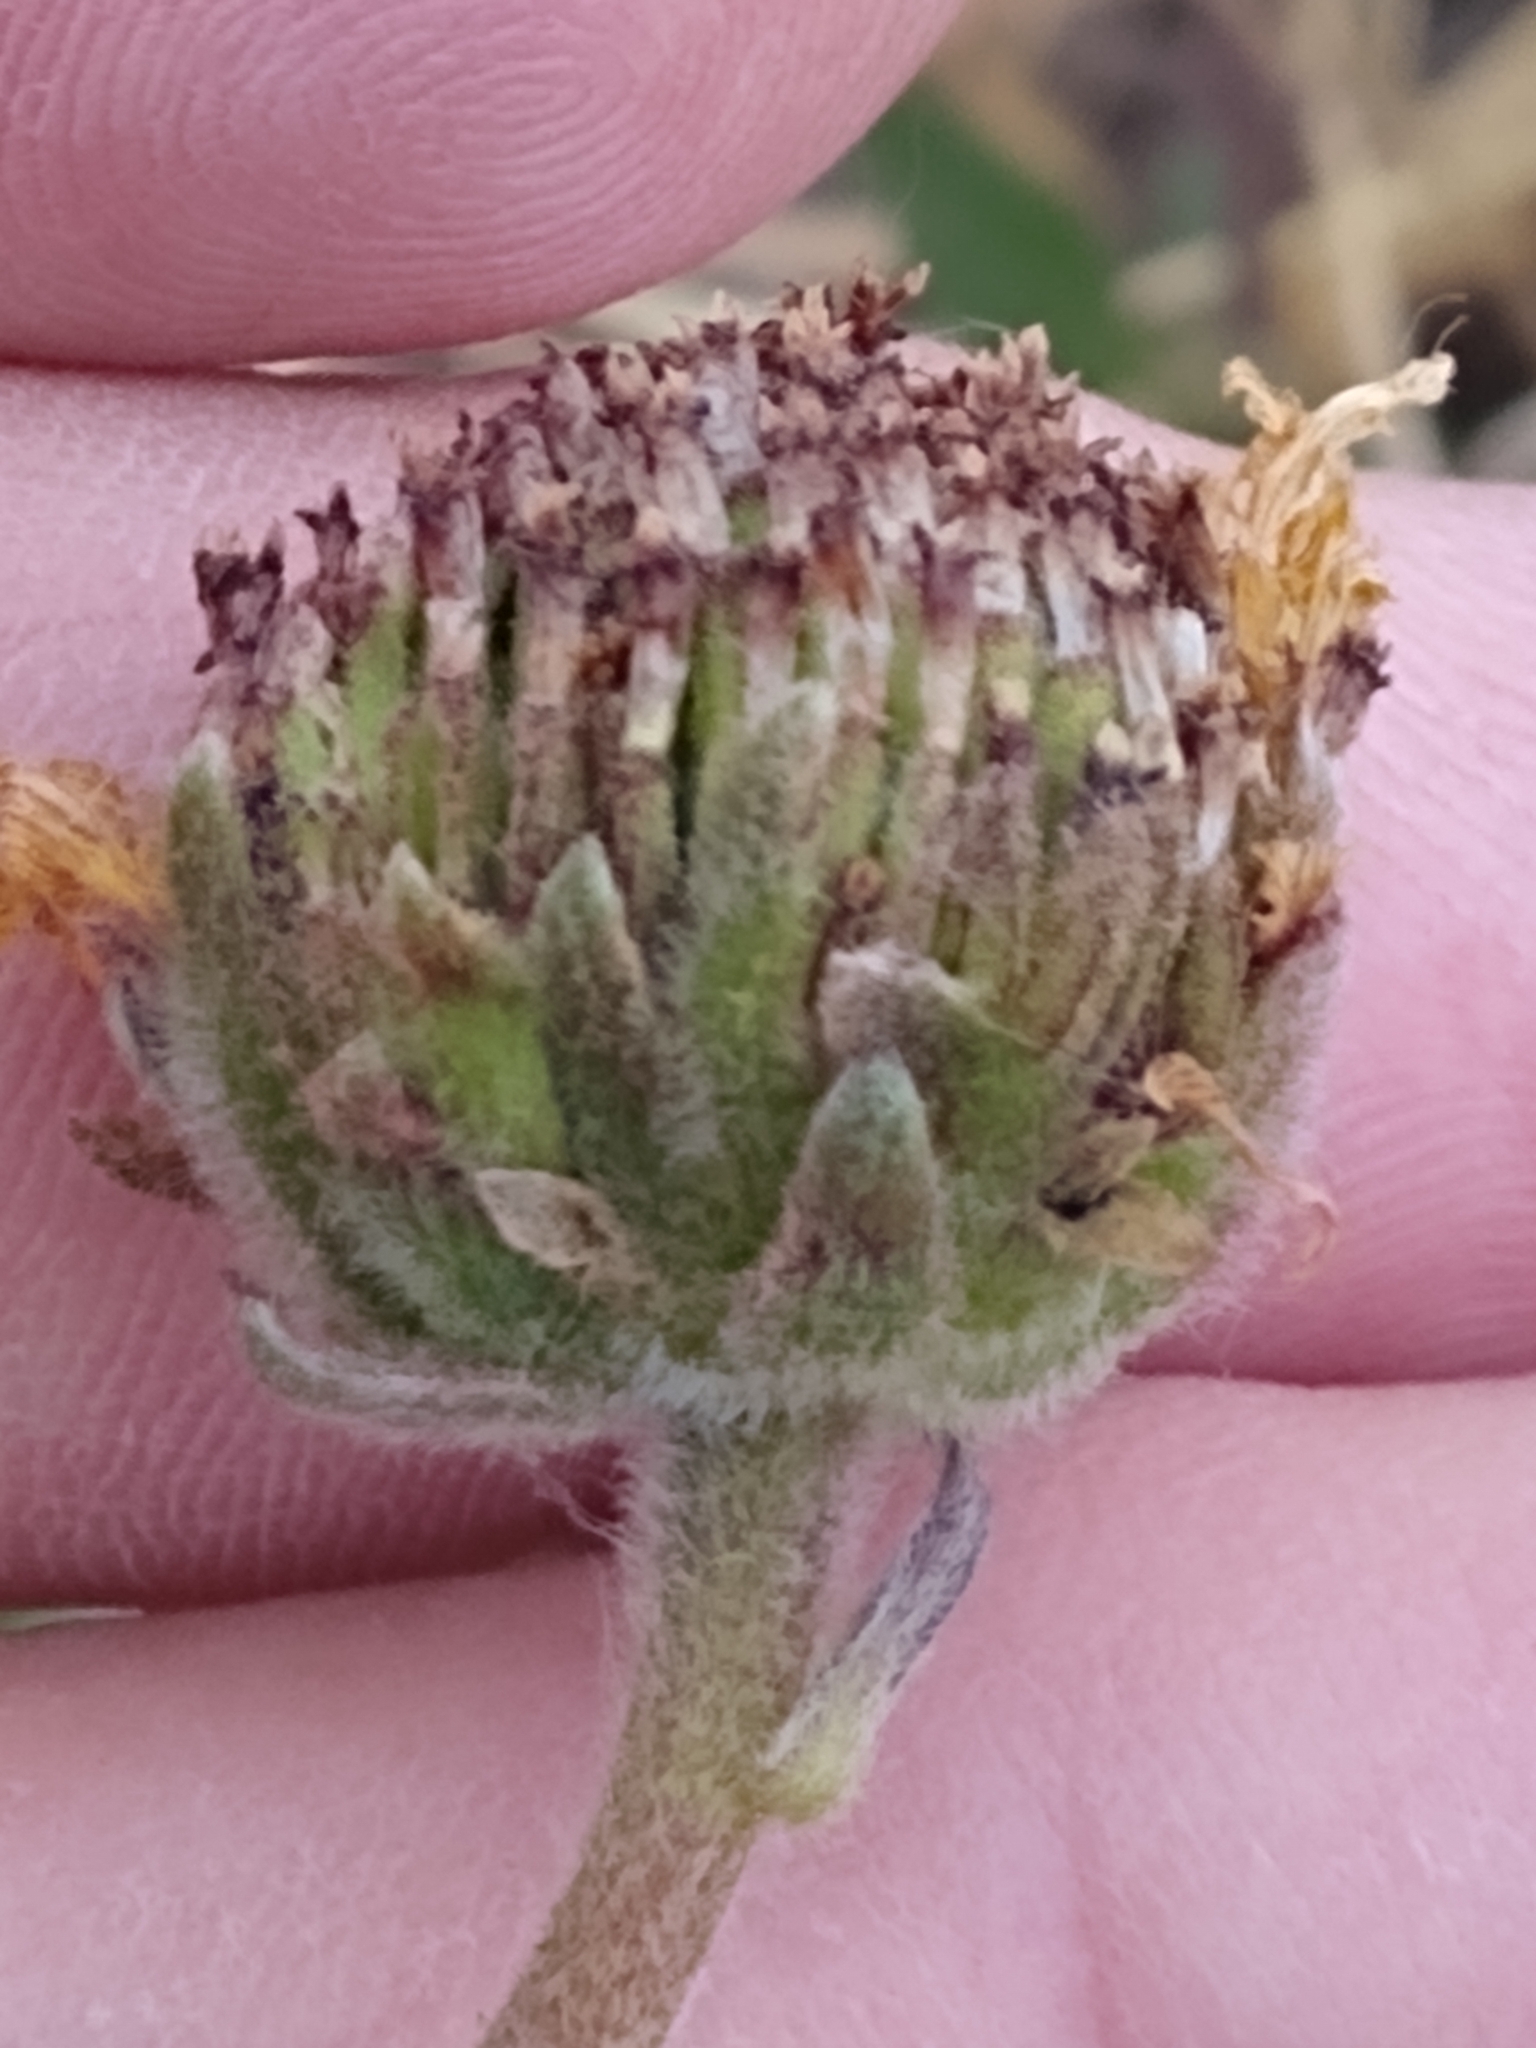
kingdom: Plantae
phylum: Tracheophyta
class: Magnoliopsida
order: Asterales
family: Asteraceae
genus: Encelia
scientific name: Encelia californica
